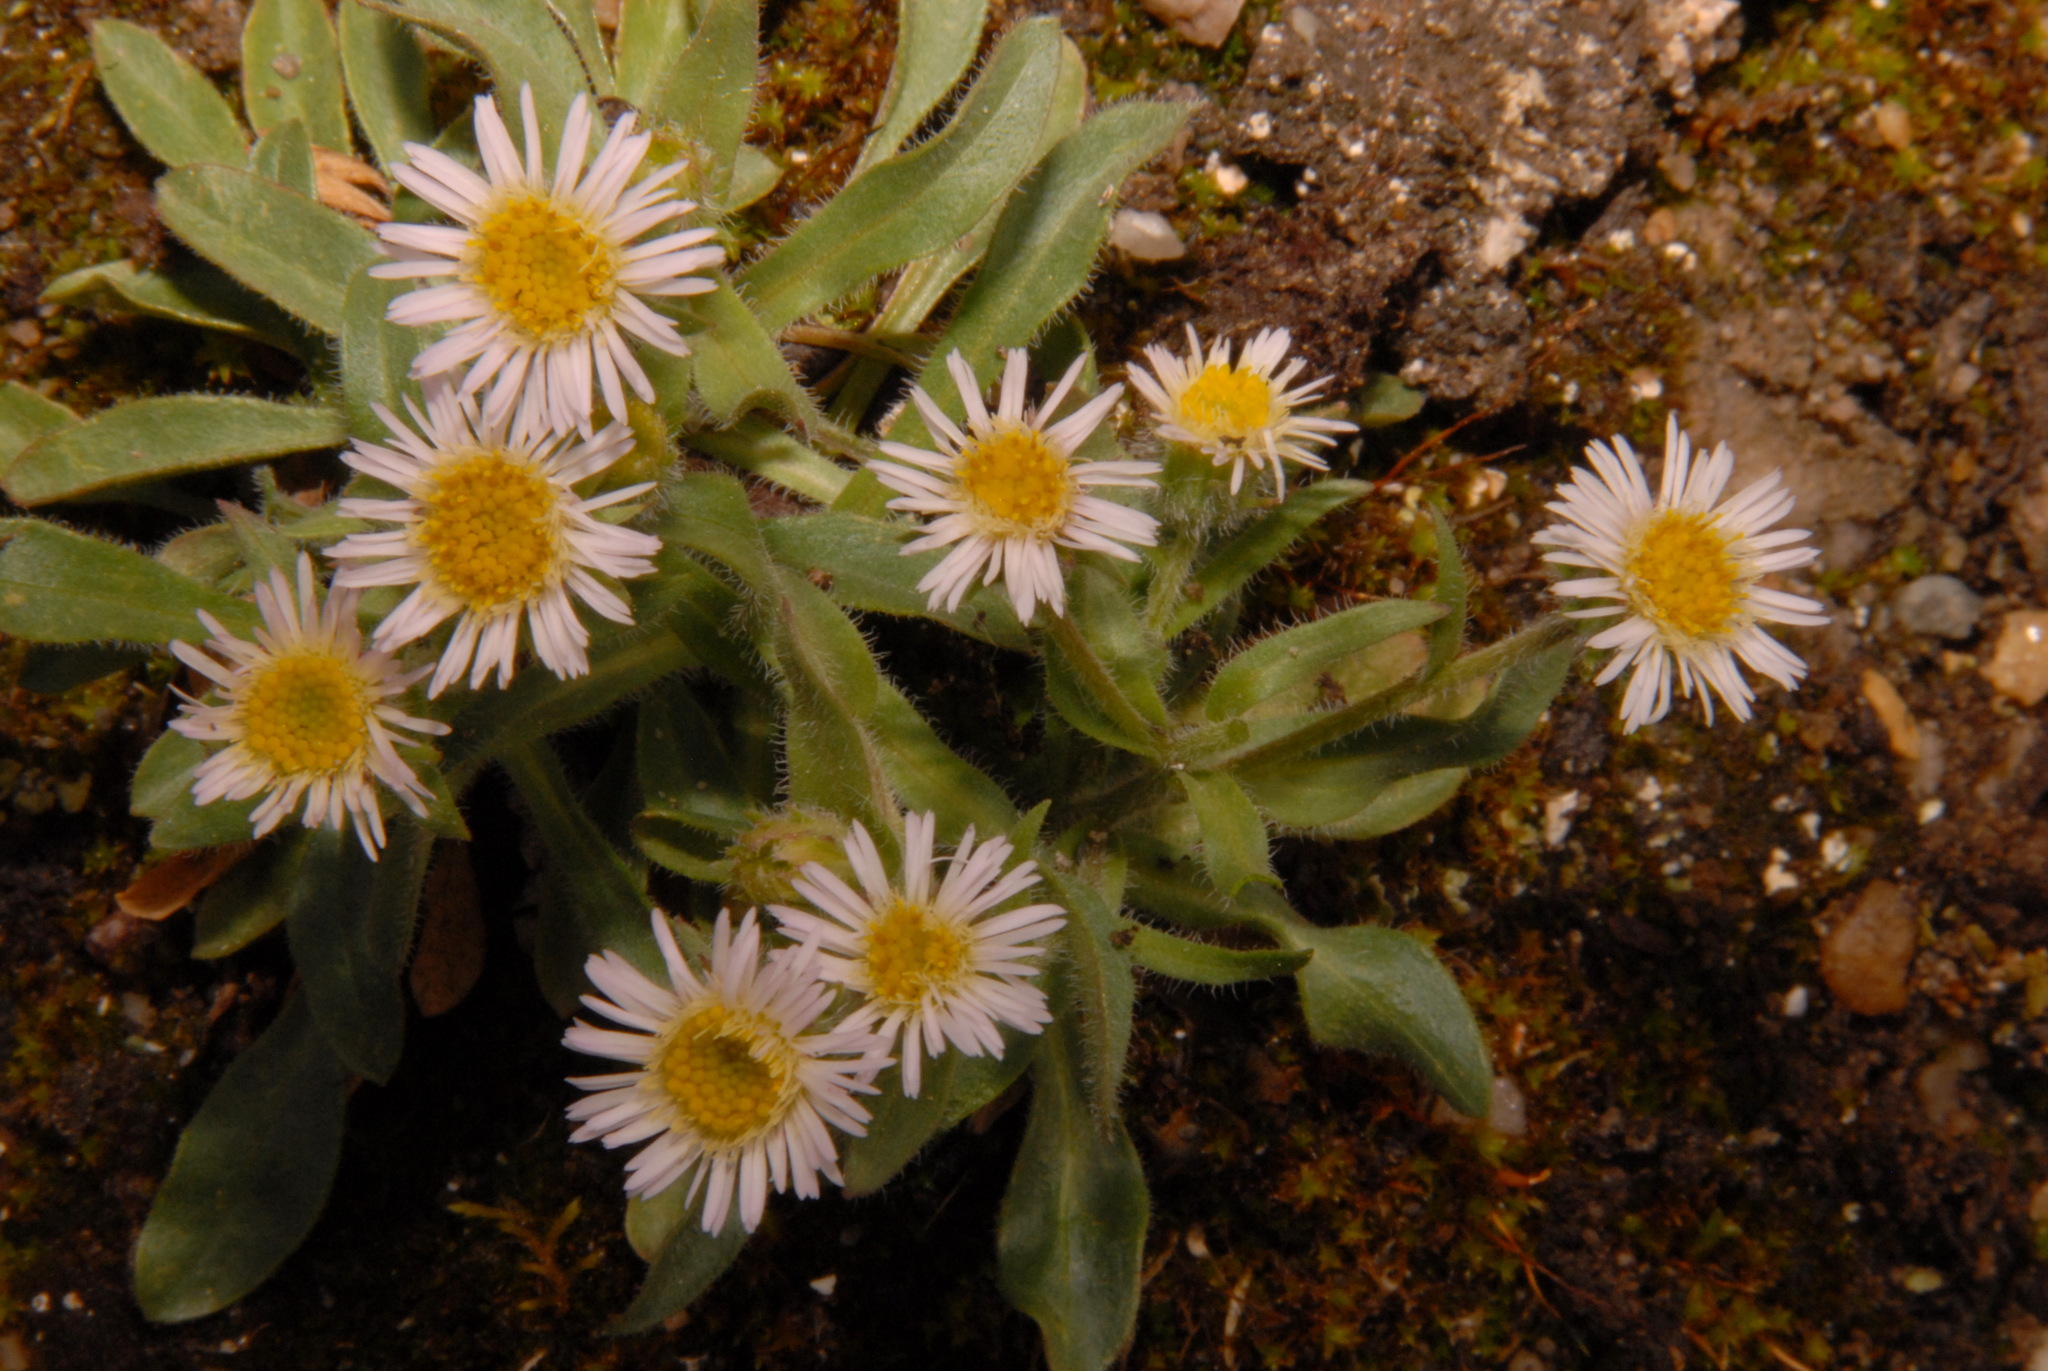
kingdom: Plantae
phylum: Tracheophyta
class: Magnoliopsida
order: Asterales
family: Asteraceae
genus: Erigeron
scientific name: Erigeron nivalis
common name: Snow fleabane
